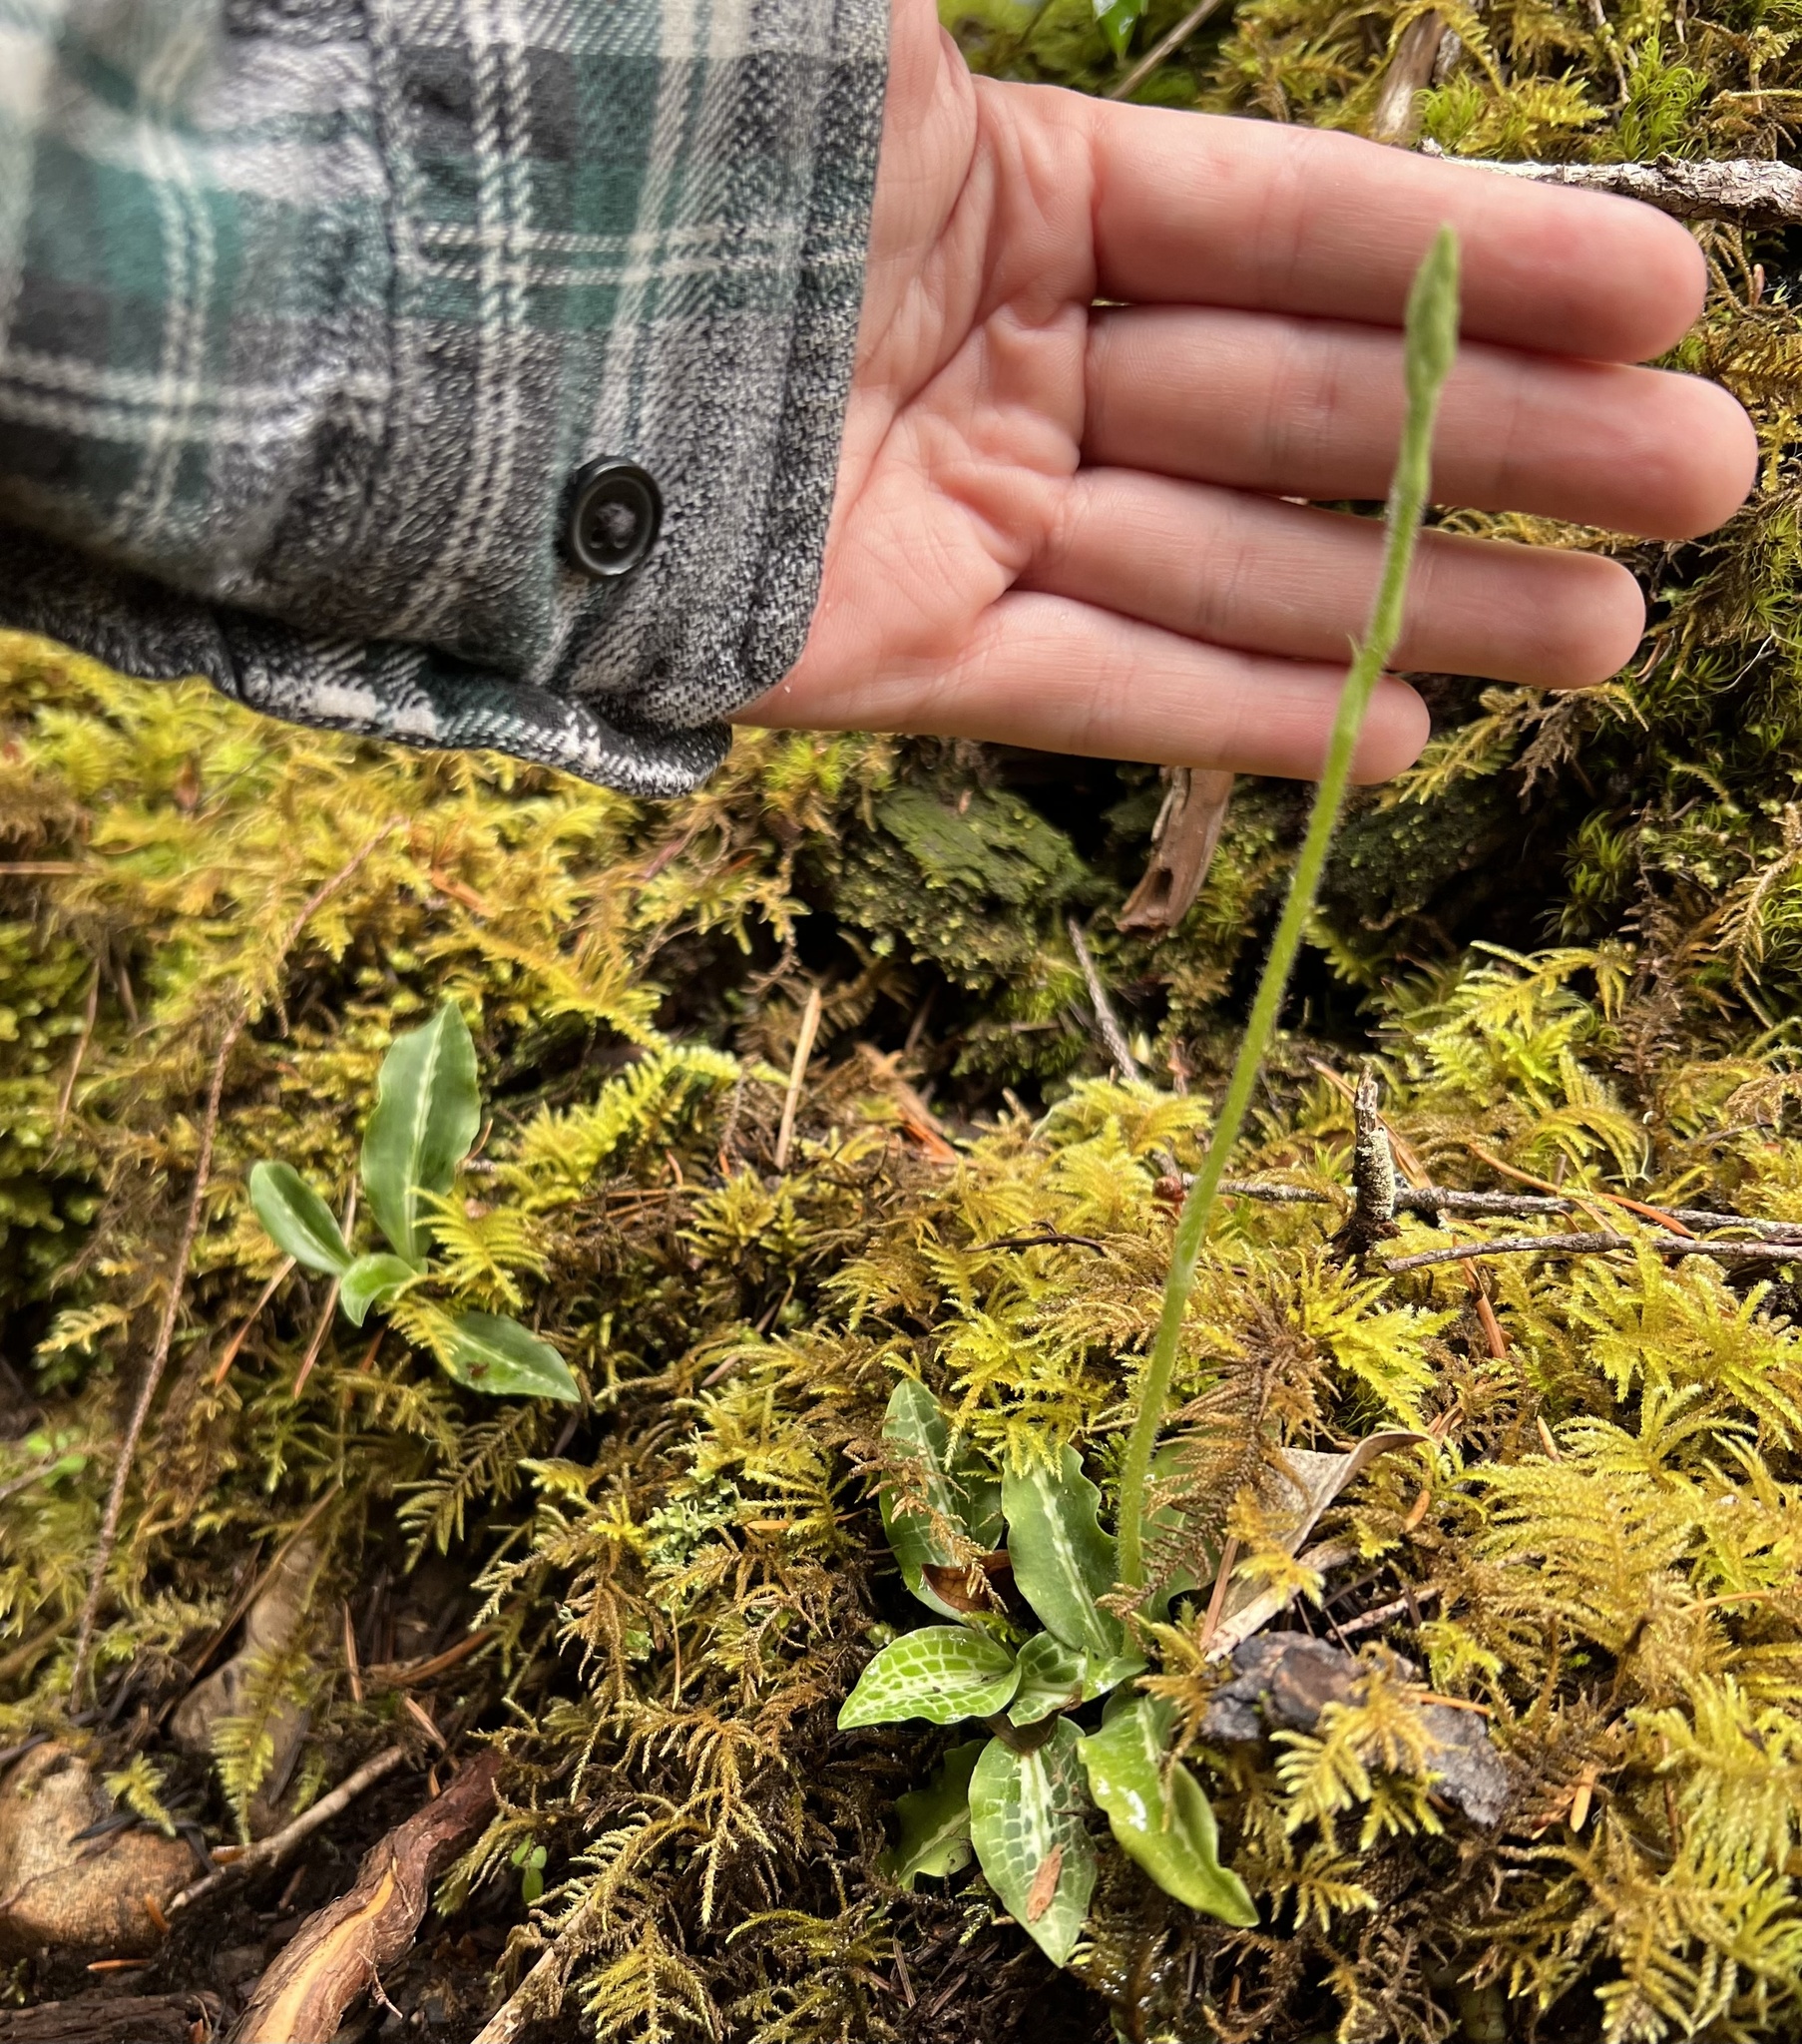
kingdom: Plantae
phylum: Tracheophyta
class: Liliopsida
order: Asparagales
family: Orchidaceae
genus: Goodyera
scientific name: Goodyera oblongifolia
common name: Giant rattlesnake-plantain
